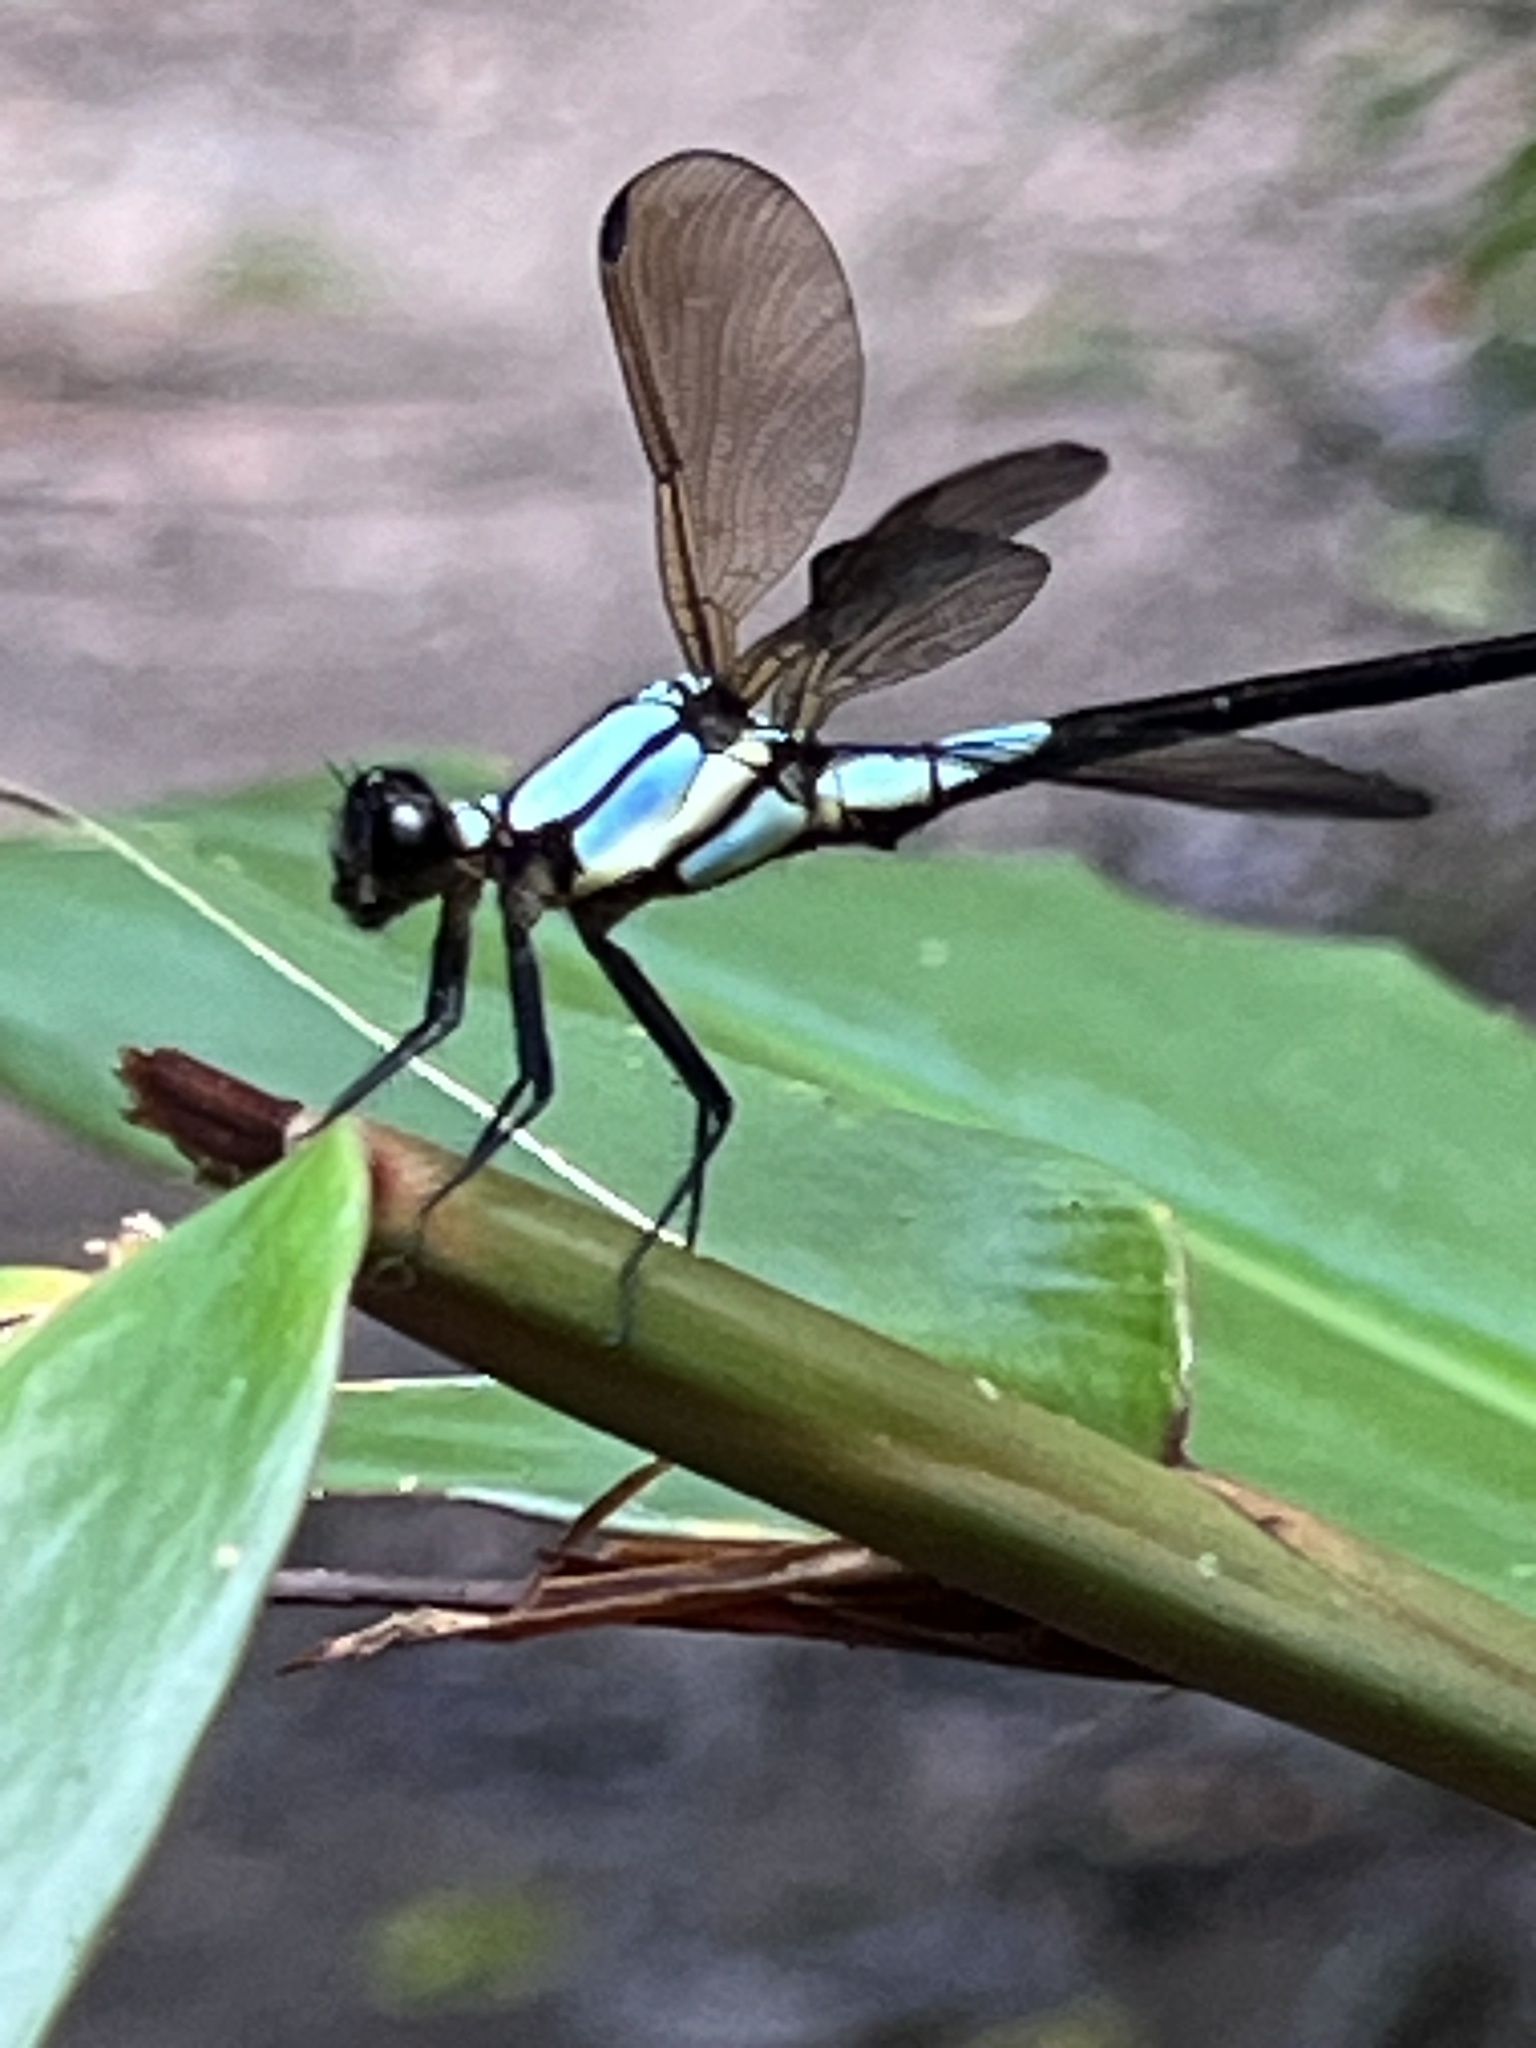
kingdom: Animalia
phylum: Arthropoda
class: Insecta
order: Odonata
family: Lestoideidae
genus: Diphlebia
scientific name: Diphlebia euphoeoides
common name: Tropical rockmaster
